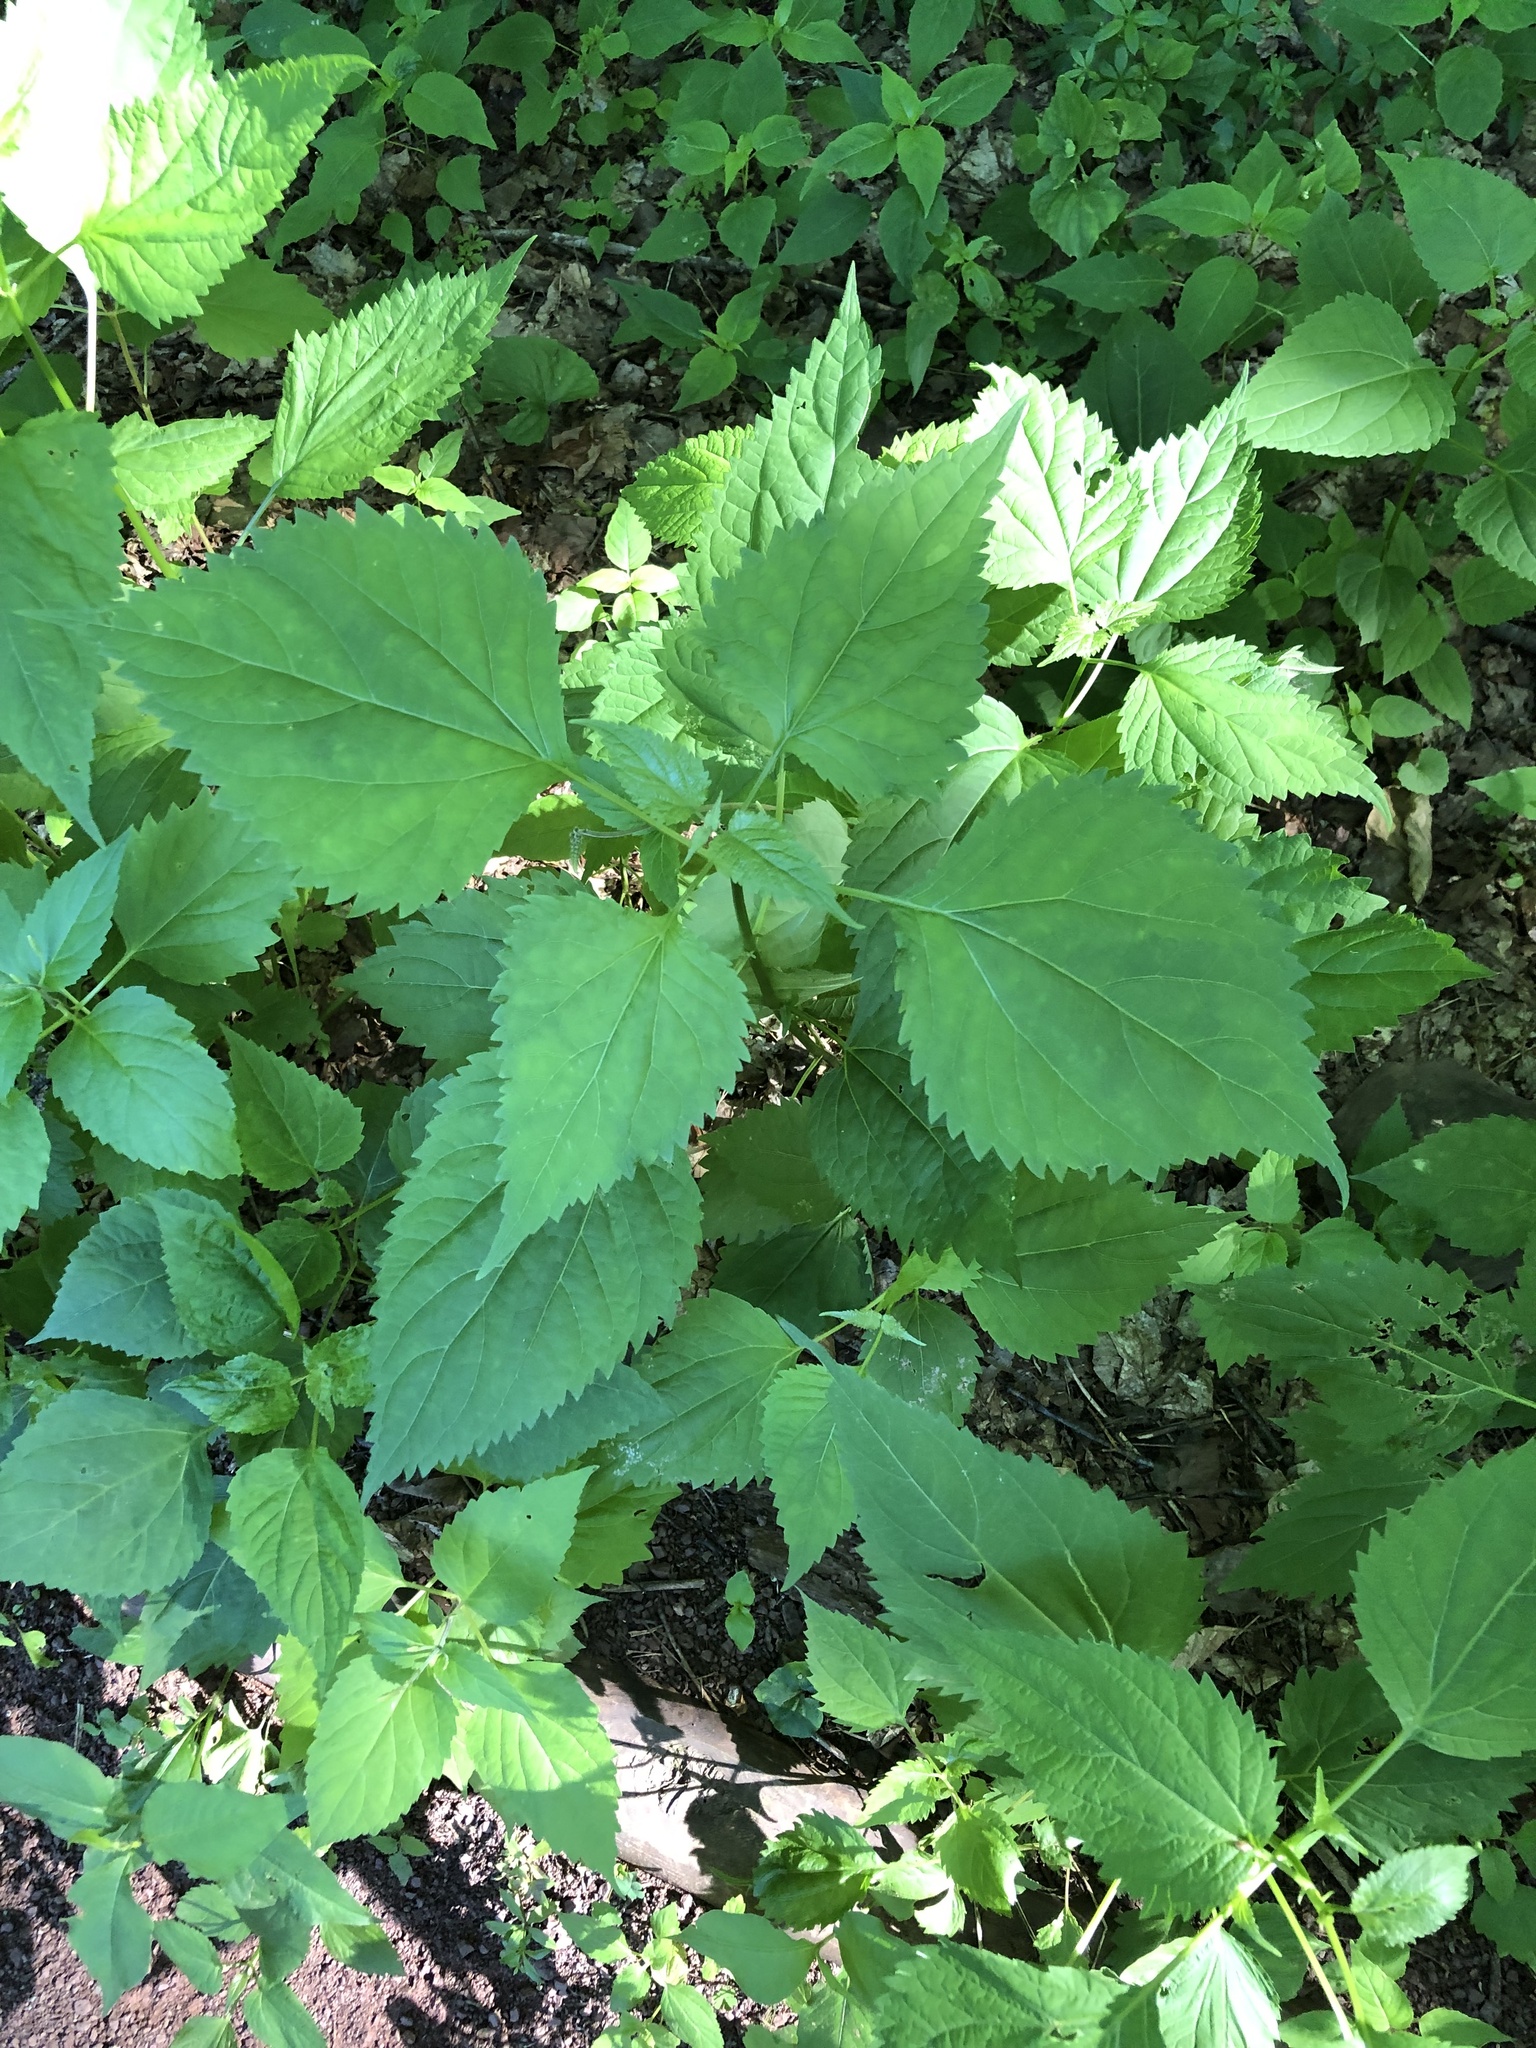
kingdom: Plantae
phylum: Tracheophyta
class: Magnoliopsida
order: Asterales
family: Asteraceae
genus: Ageratina
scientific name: Ageratina altissima
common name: White snakeroot
